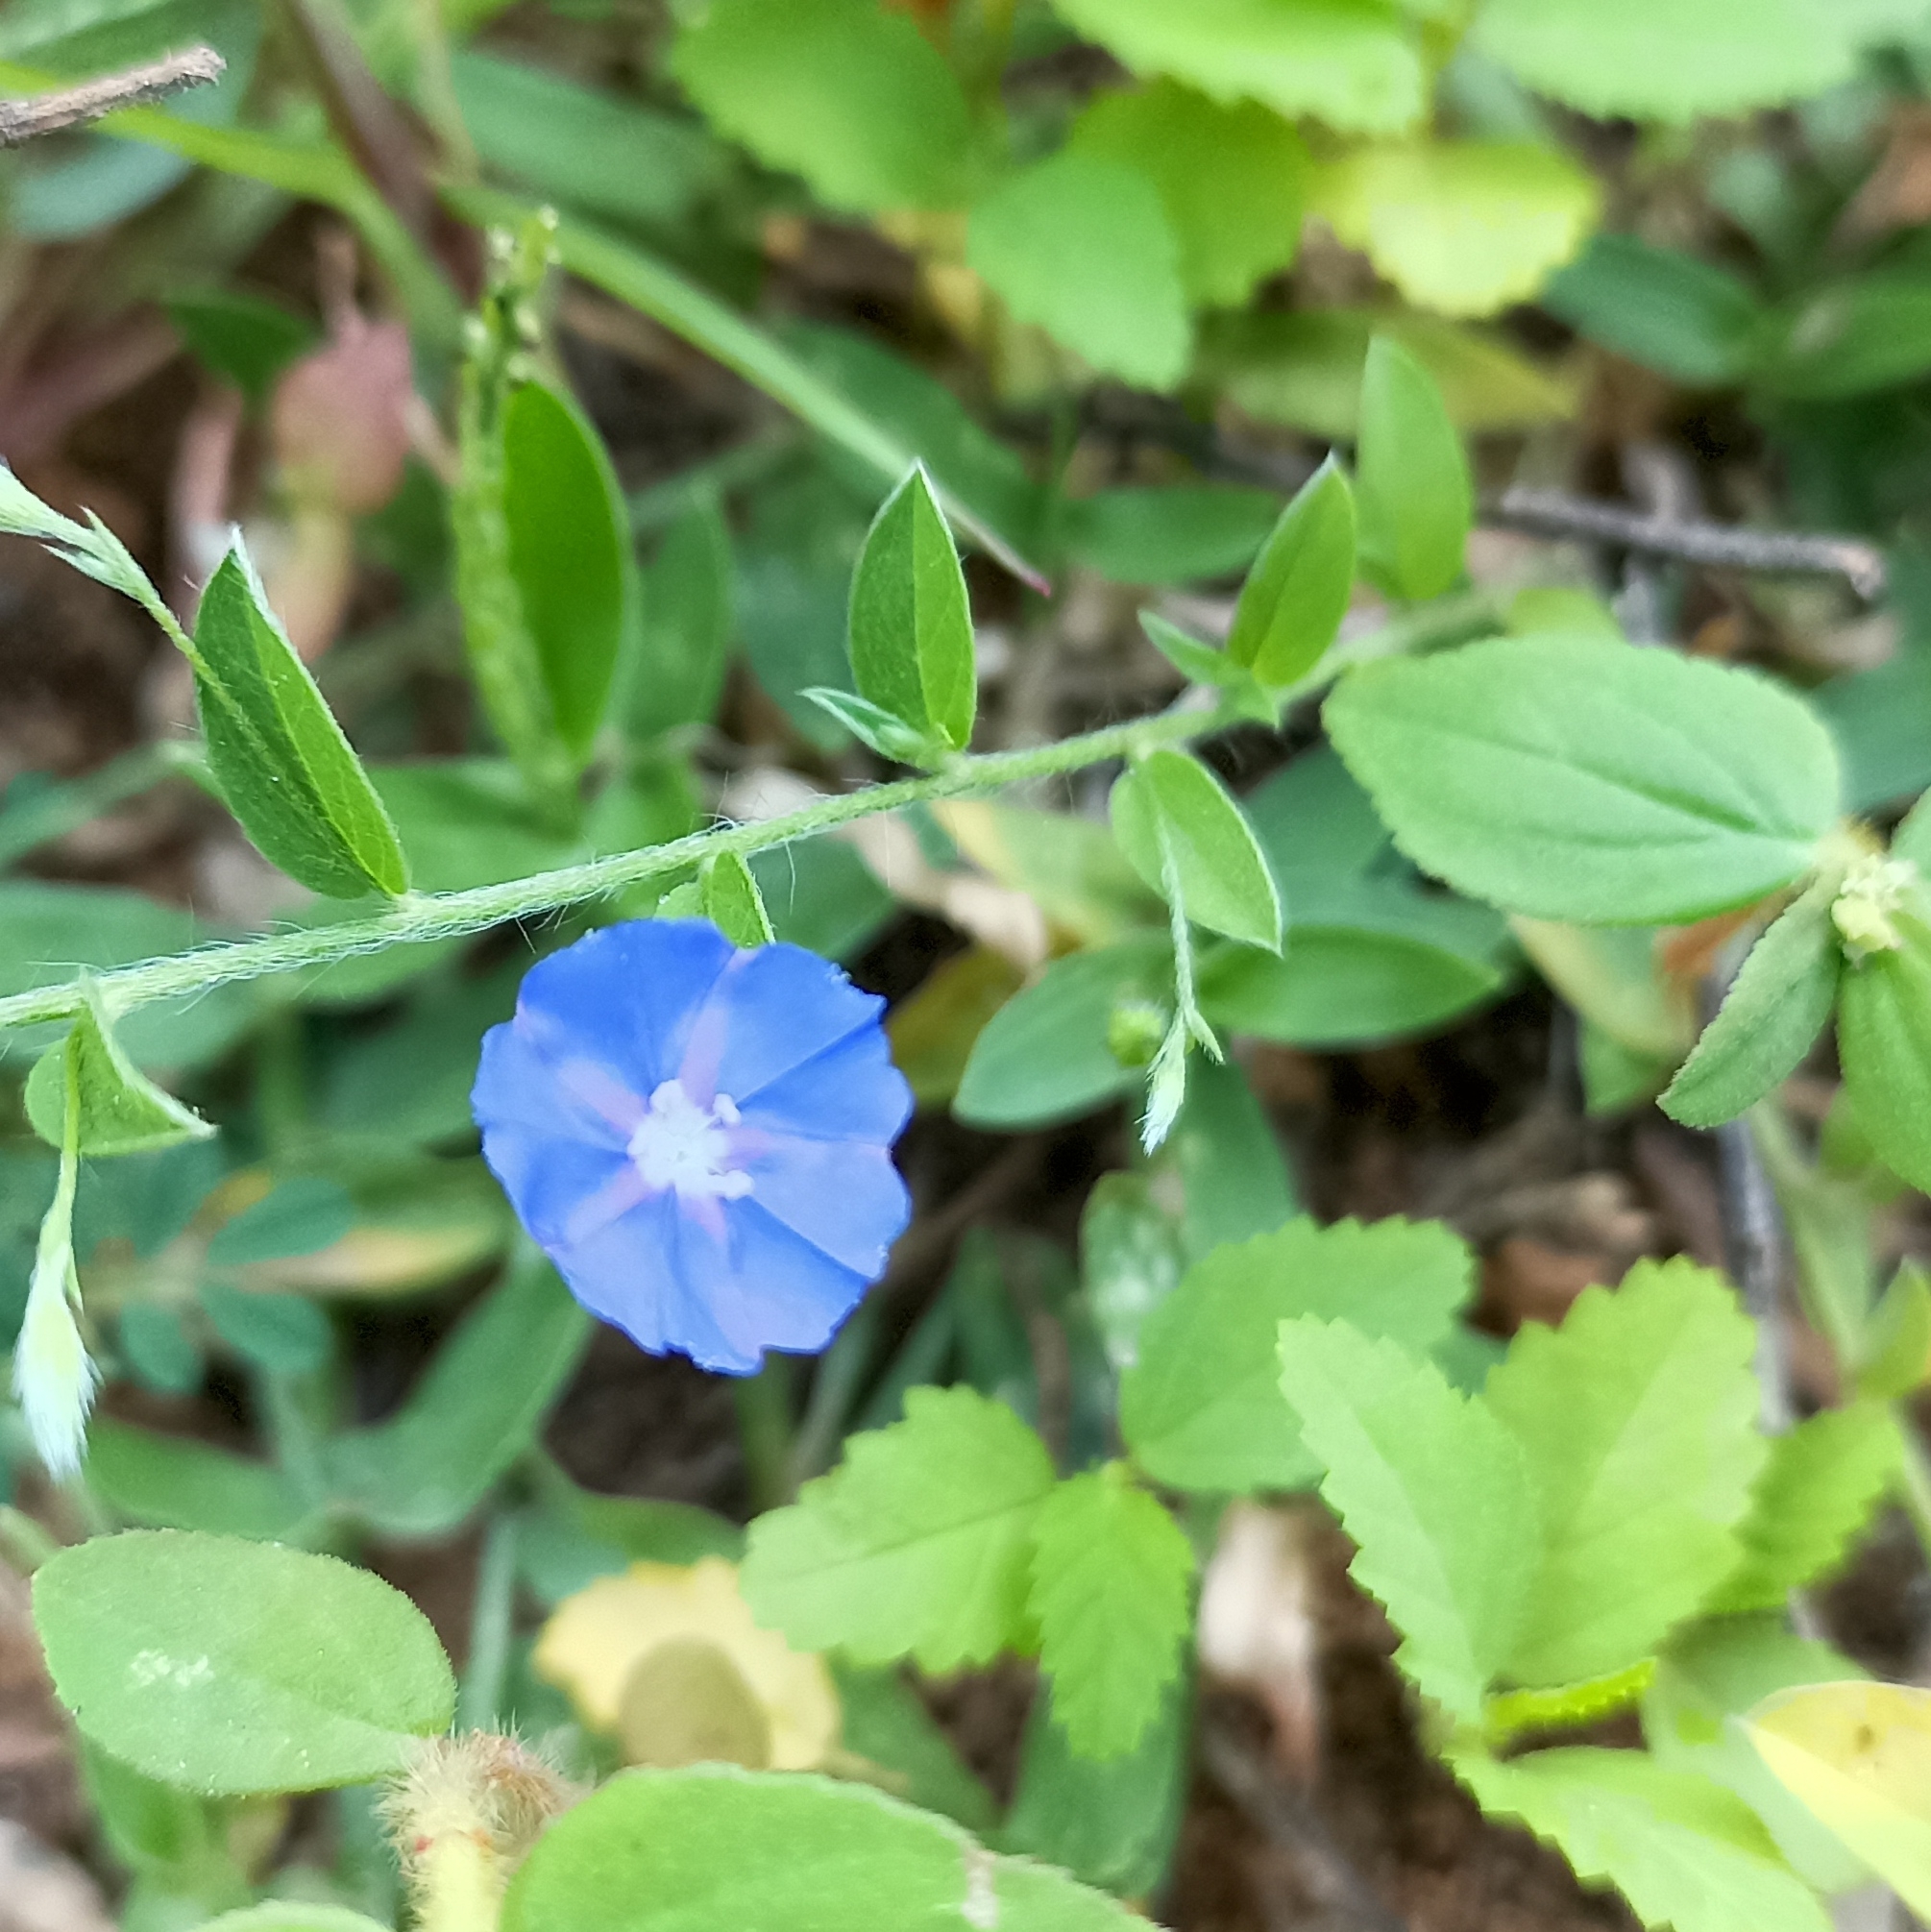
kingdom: Plantae
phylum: Tracheophyta
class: Magnoliopsida
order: Solanales
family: Convolvulaceae
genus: Evolvulus
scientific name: Evolvulus alsinoides
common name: Slender dwarf morning-glory
